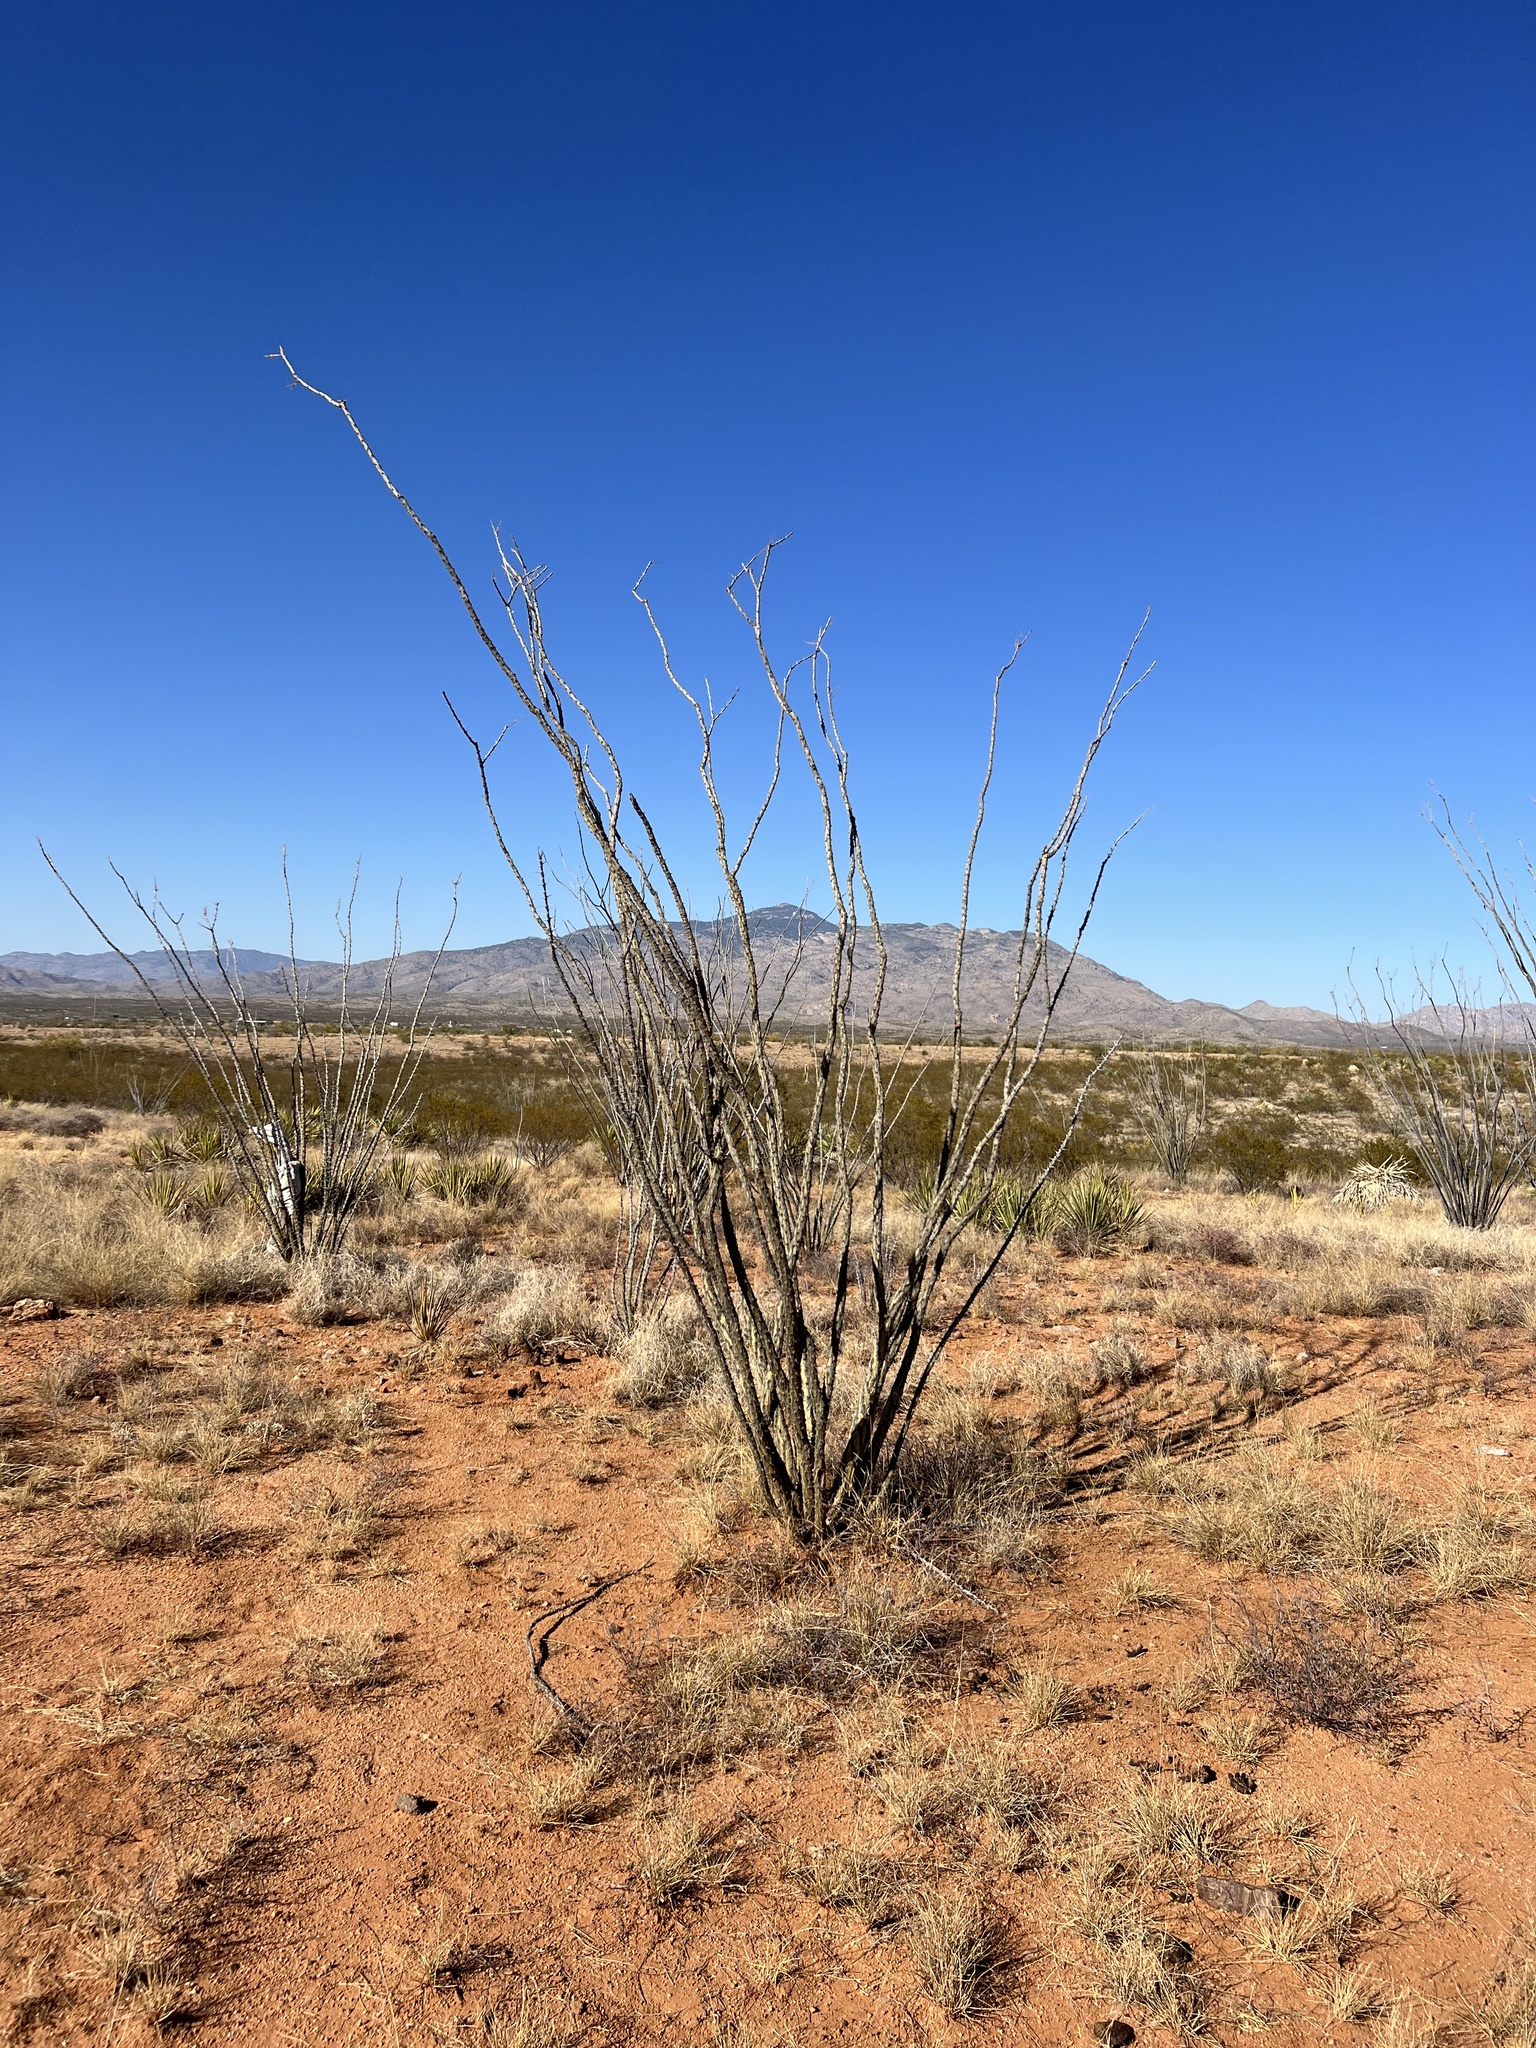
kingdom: Plantae
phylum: Tracheophyta
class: Magnoliopsida
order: Ericales
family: Fouquieriaceae
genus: Fouquieria
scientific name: Fouquieria splendens
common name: Vine-cactus
